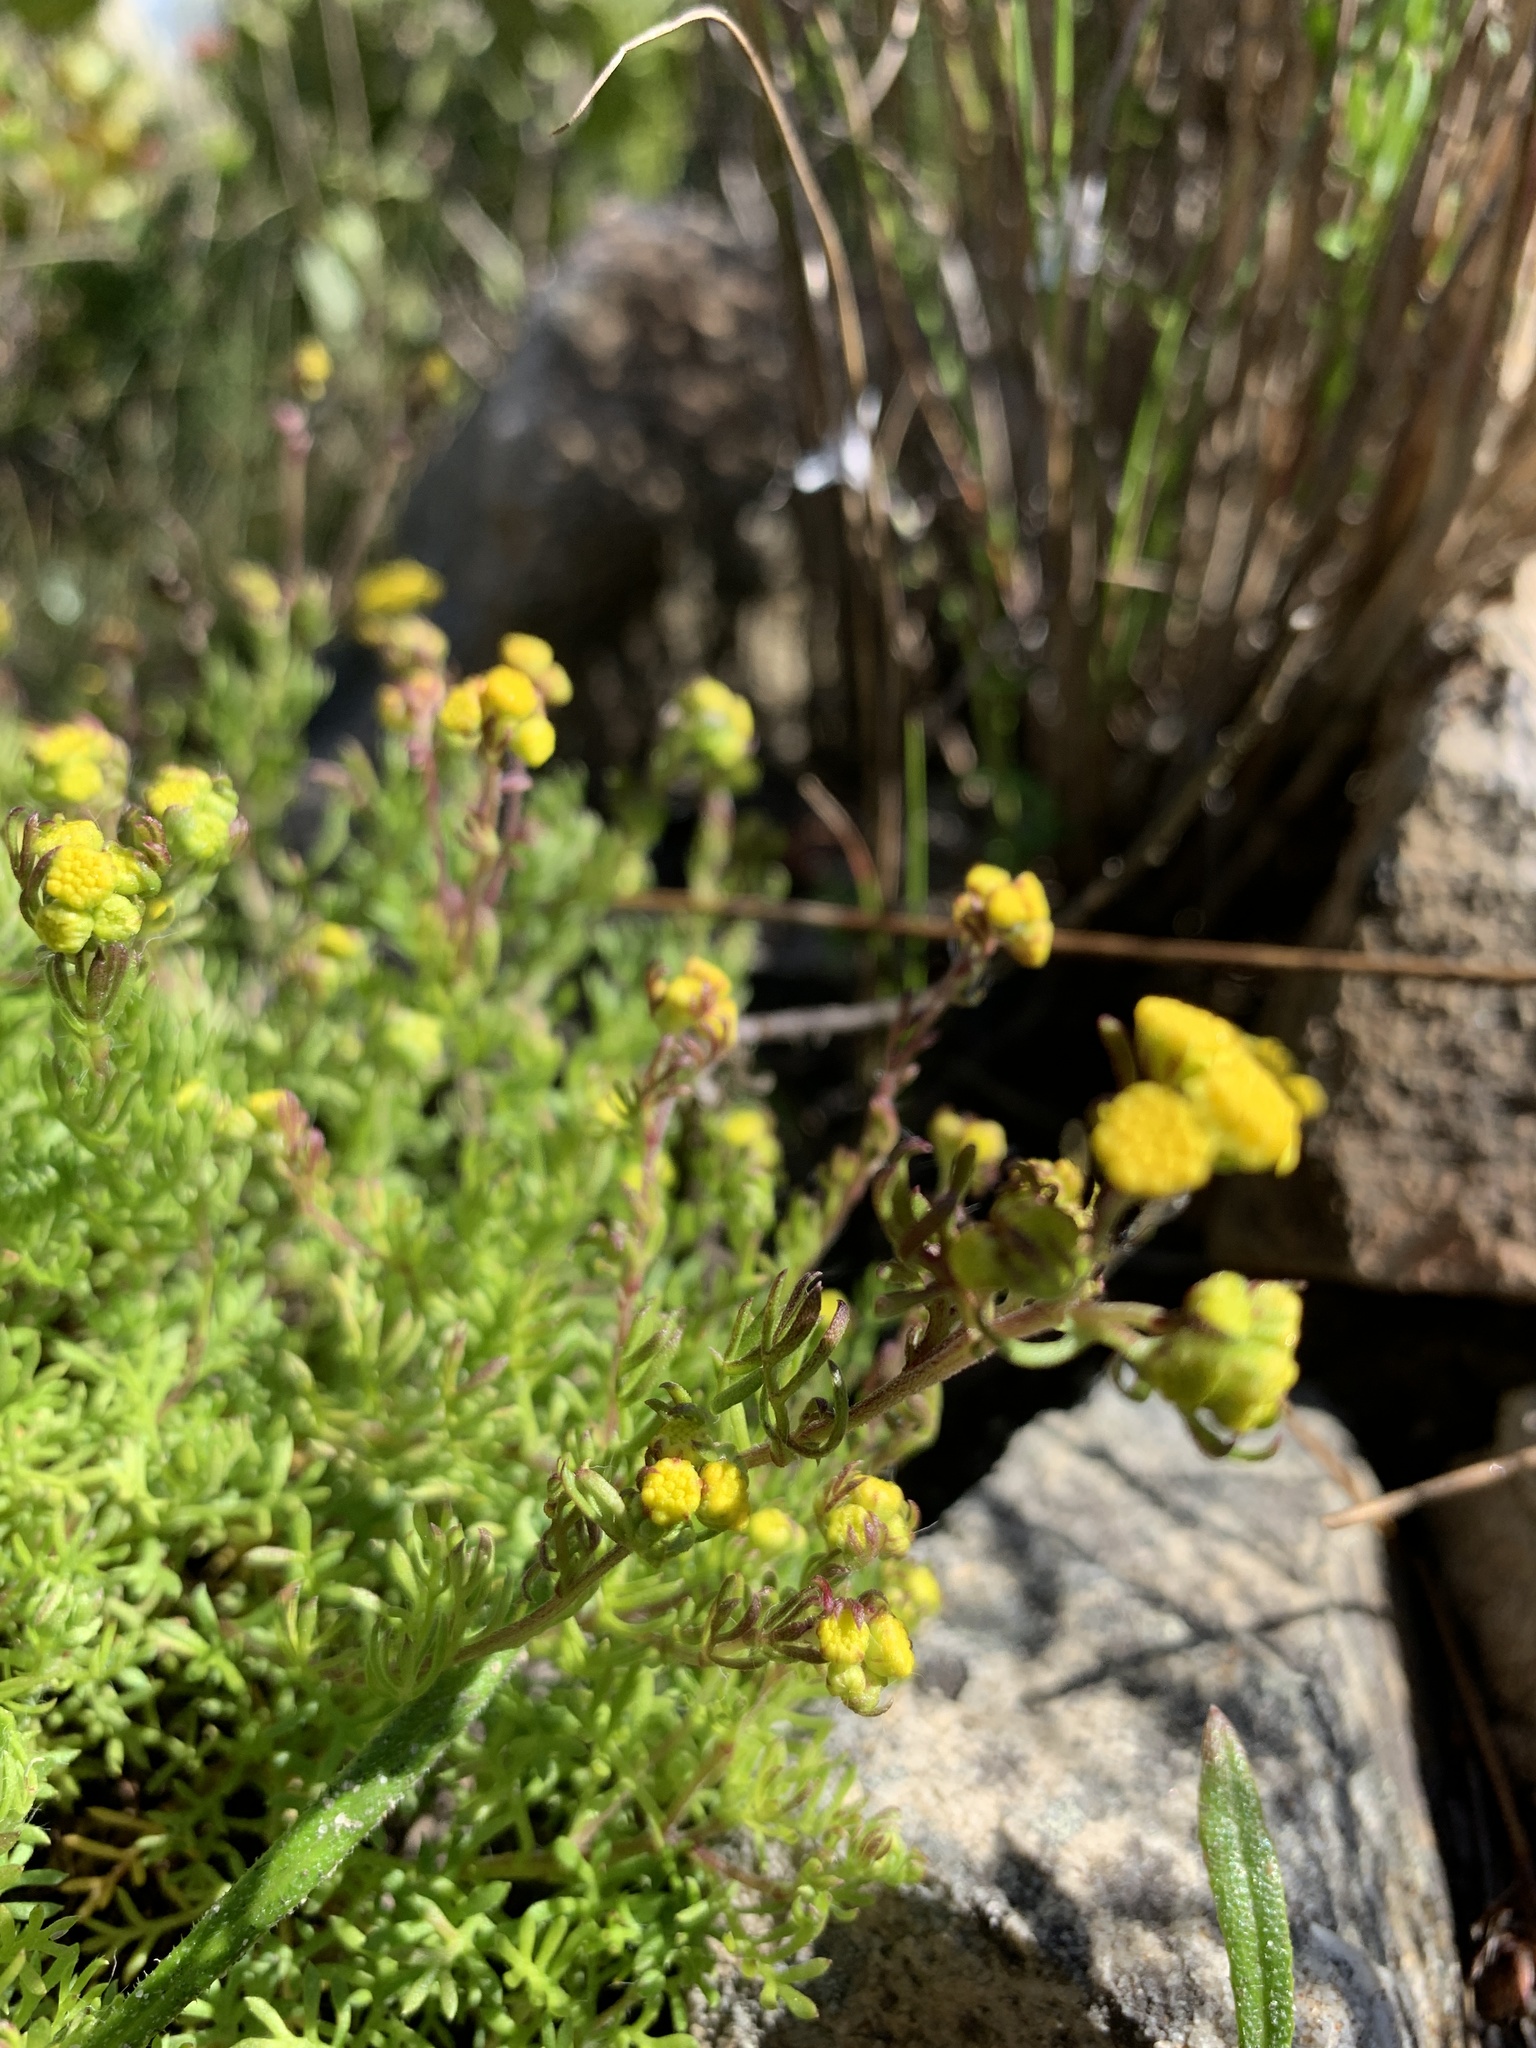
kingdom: Plantae
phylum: Tracheophyta
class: Magnoliopsida
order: Asterales
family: Asteraceae
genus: Hippia
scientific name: Hippia frutescens
